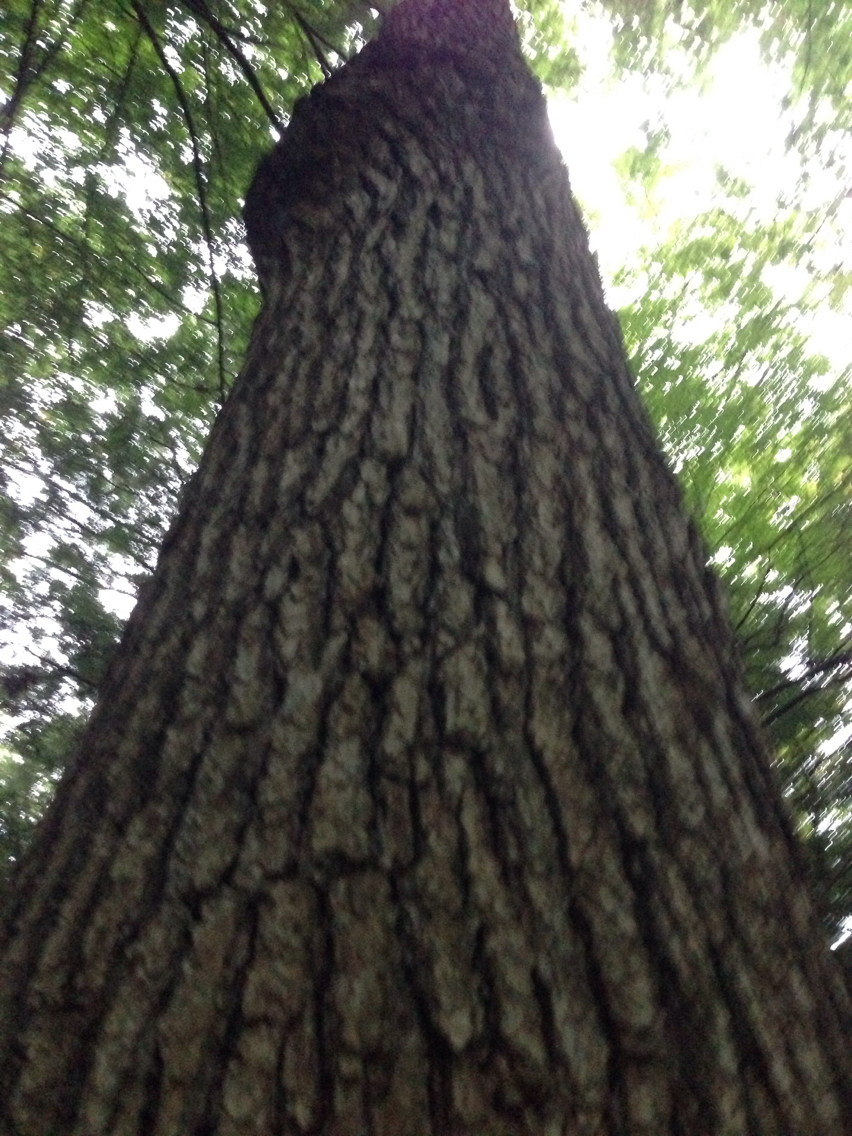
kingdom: Plantae
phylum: Tracheophyta
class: Magnoliopsida
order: Fagales
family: Fagaceae
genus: Quercus
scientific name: Quercus alba
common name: White oak
